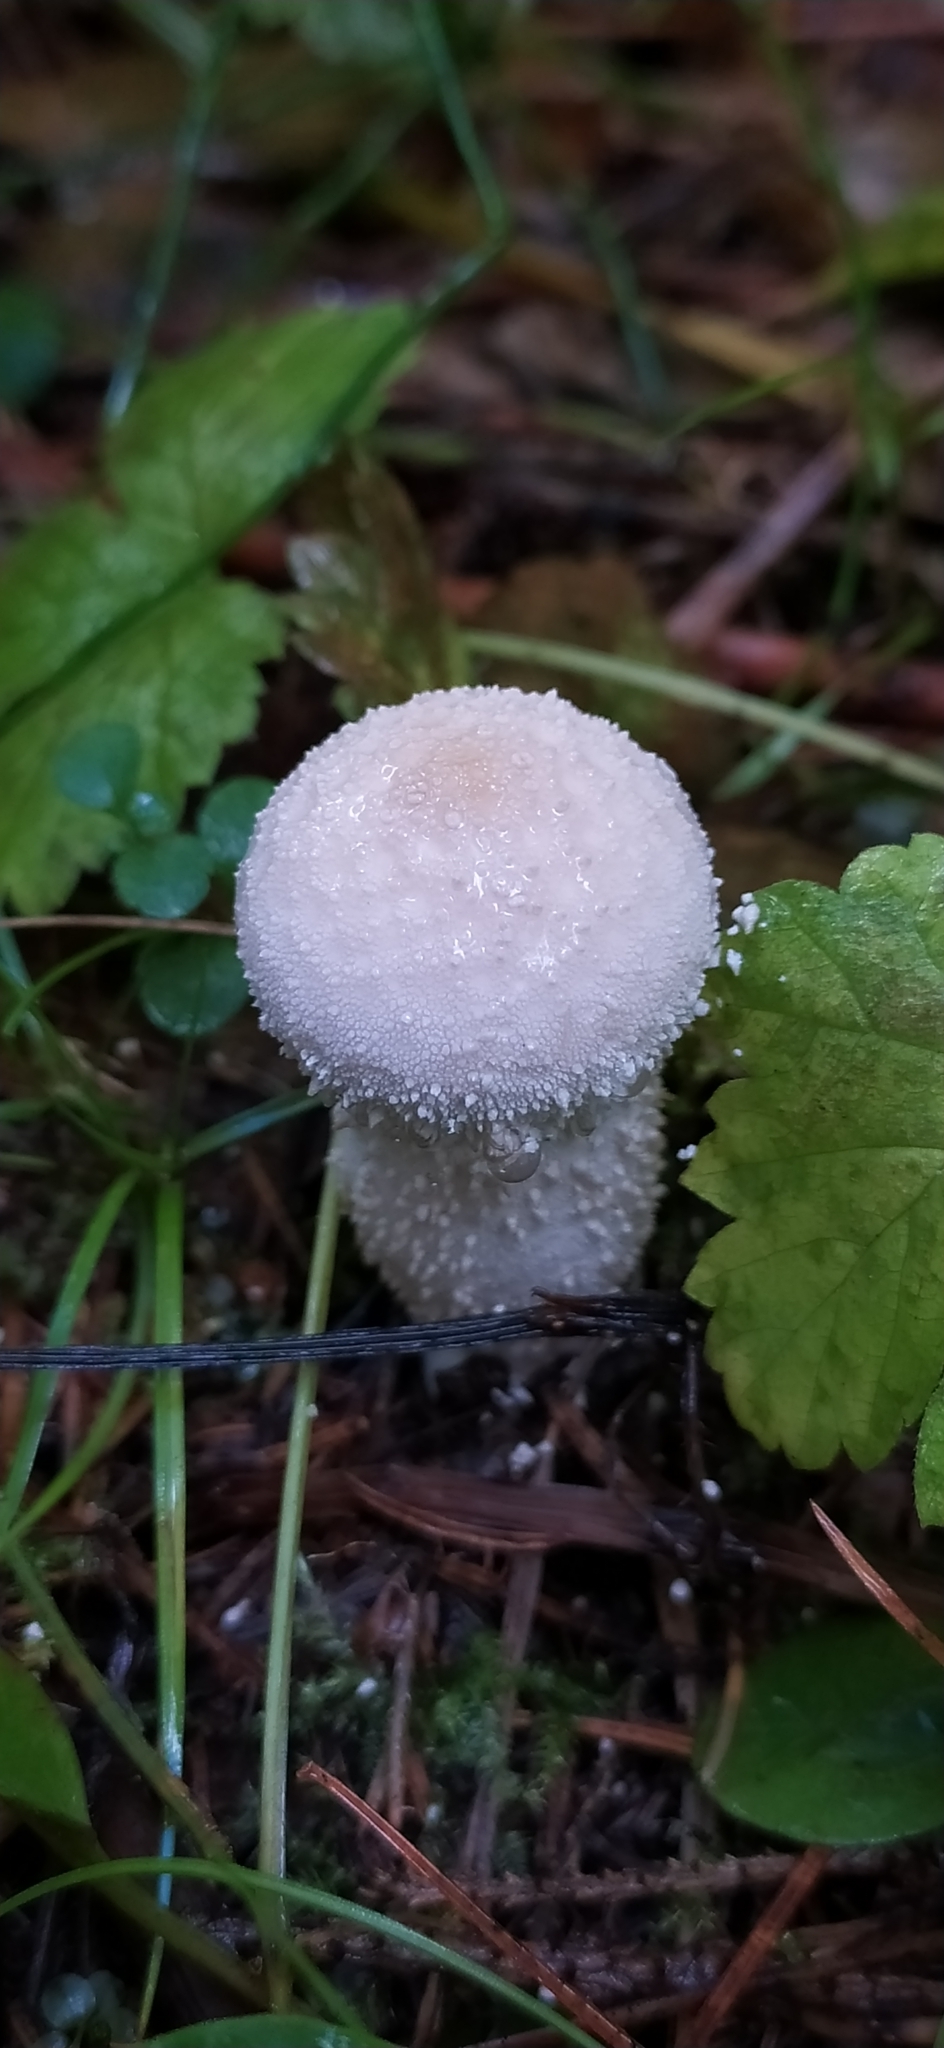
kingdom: Fungi
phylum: Basidiomycota
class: Agaricomycetes
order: Agaricales
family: Lycoperdaceae
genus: Lycoperdon
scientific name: Lycoperdon perlatum
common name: Common puffball
